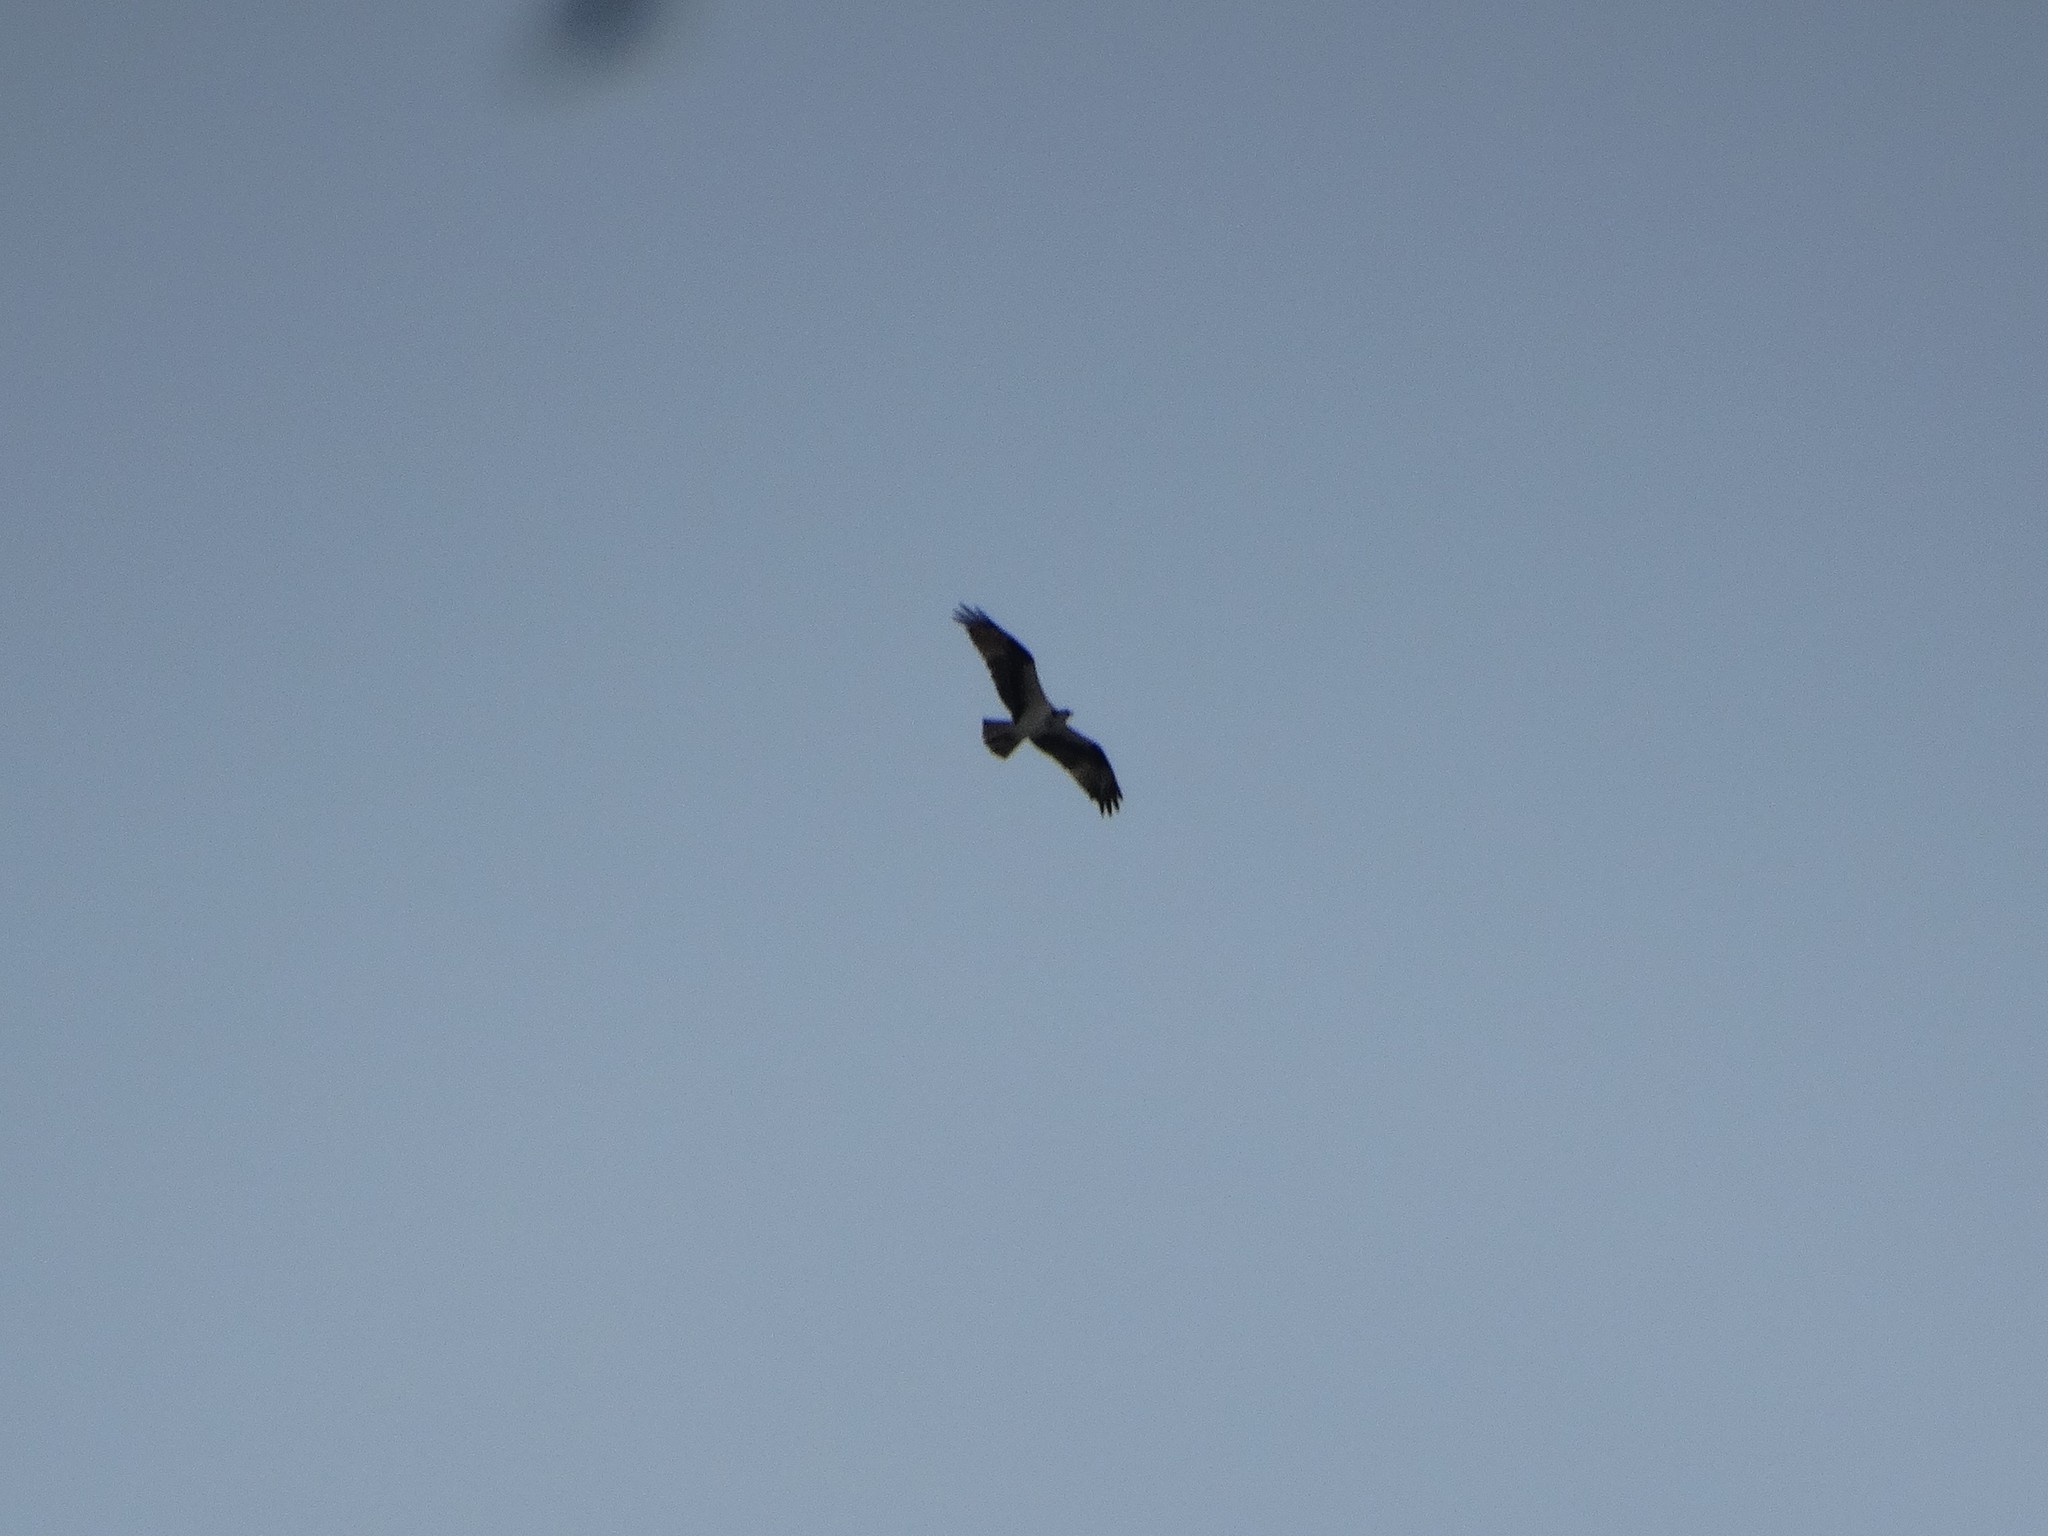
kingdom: Animalia
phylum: Chordata
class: Aves
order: Accipitriformes
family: Pandionidae
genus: Pandion
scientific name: Pandion haliaetus
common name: Osprey
